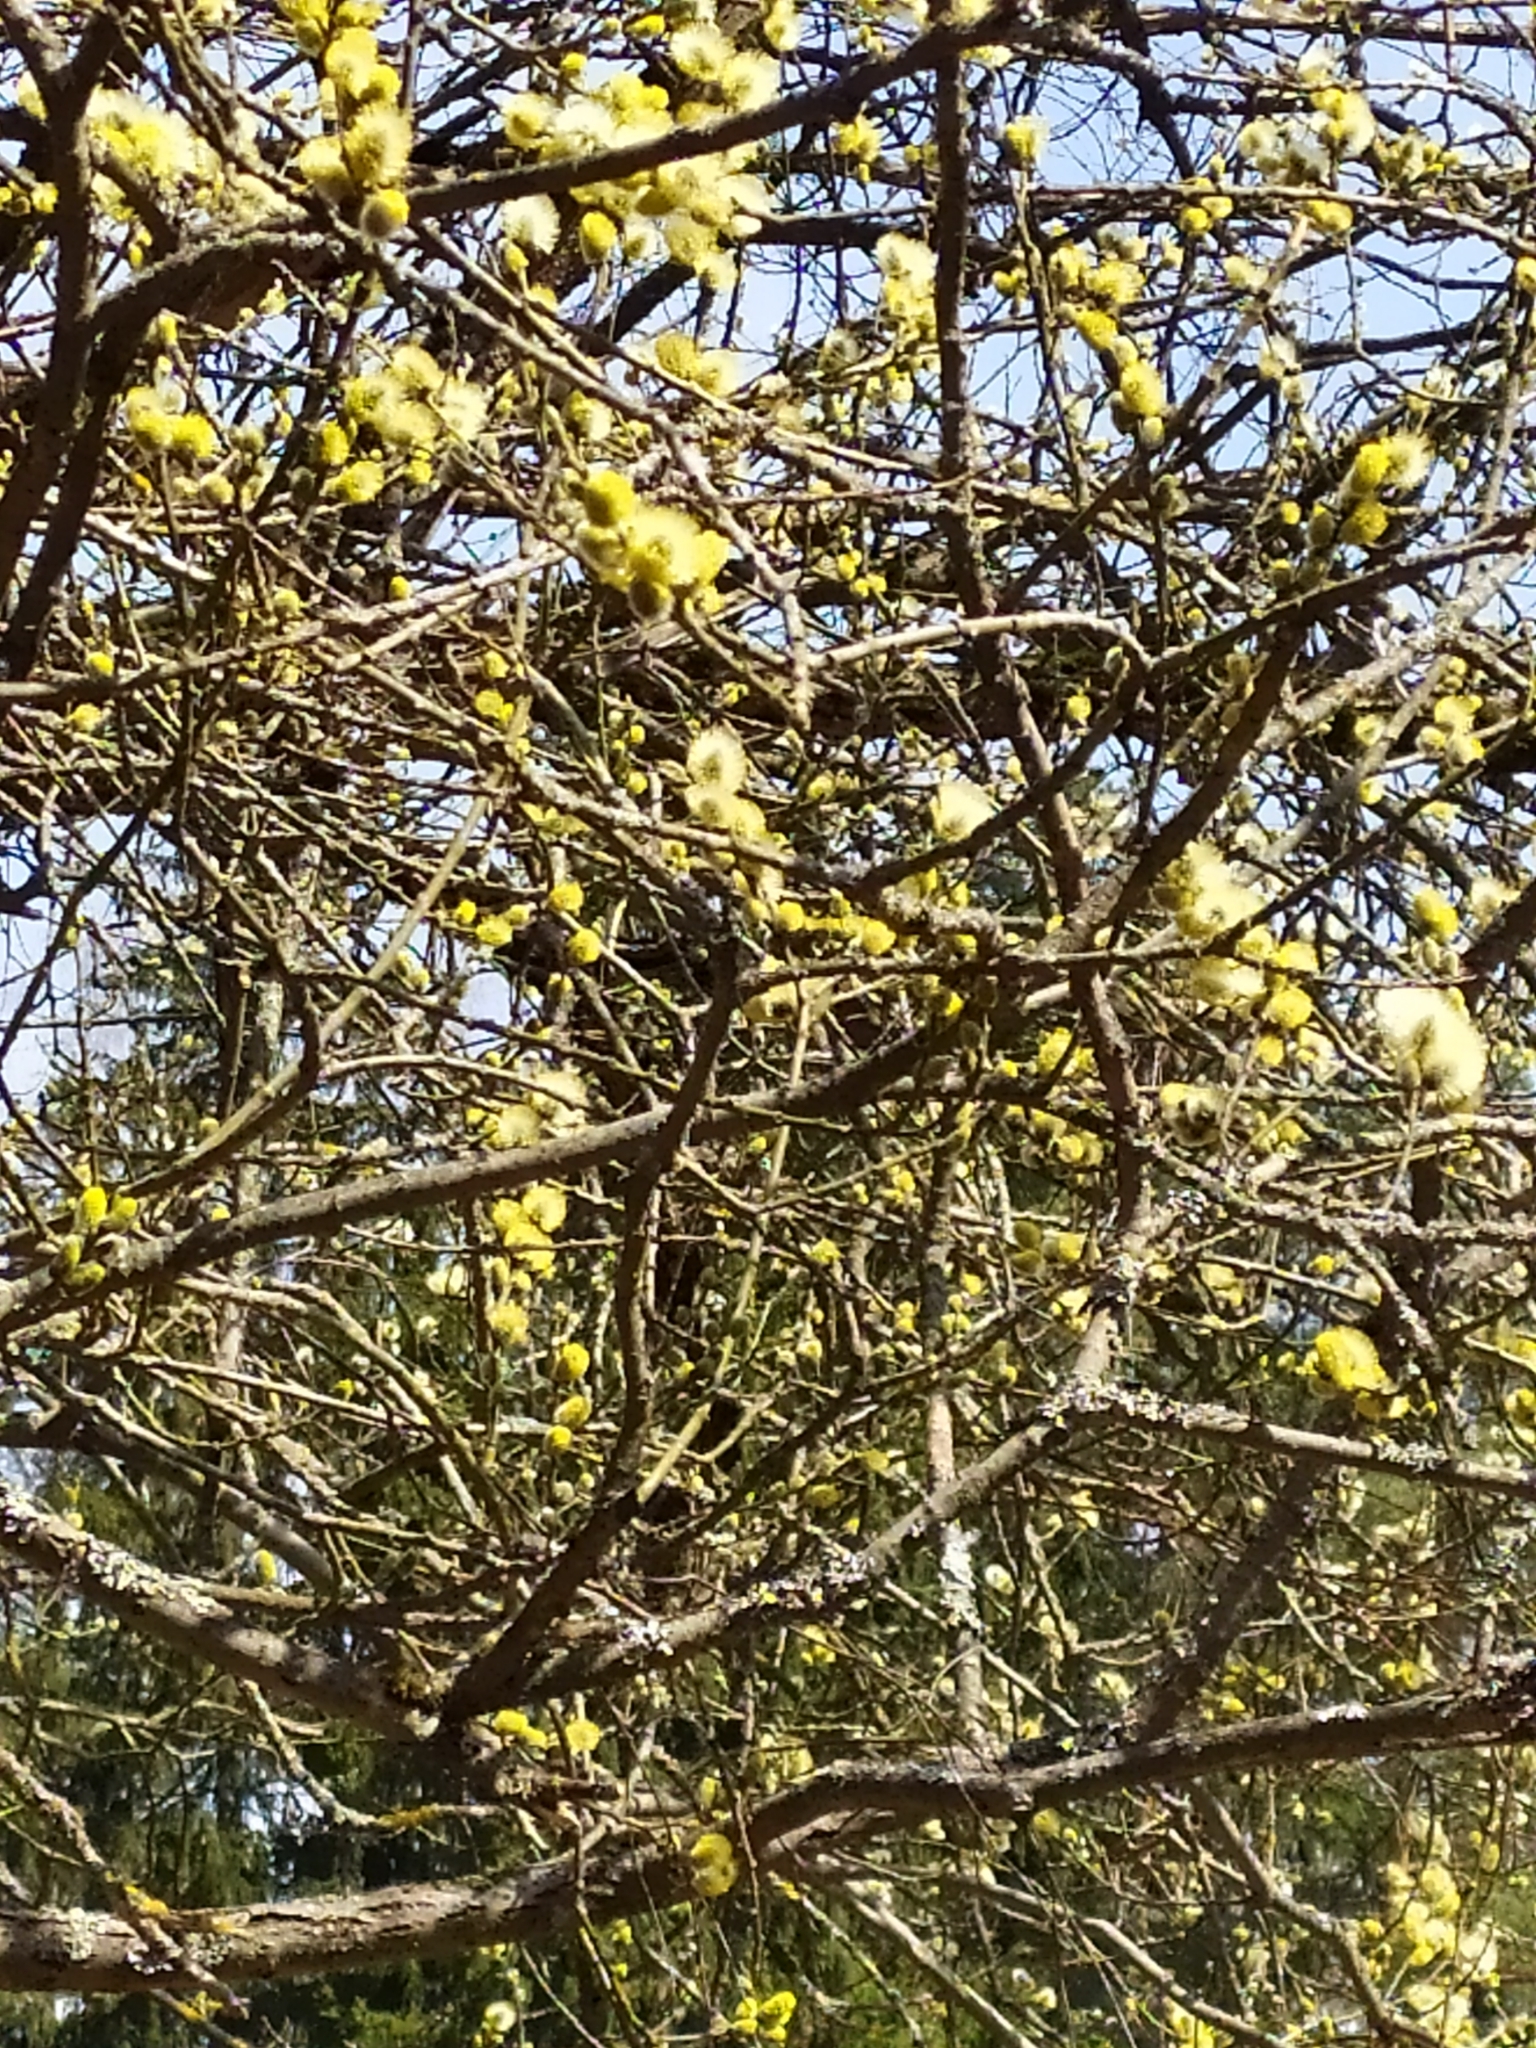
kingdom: Plantae
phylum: Tracheophyta
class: Magnoliopsida
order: Malpighiales
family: Salicaceae
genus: Salix
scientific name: Salix caprea
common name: Goat willow
